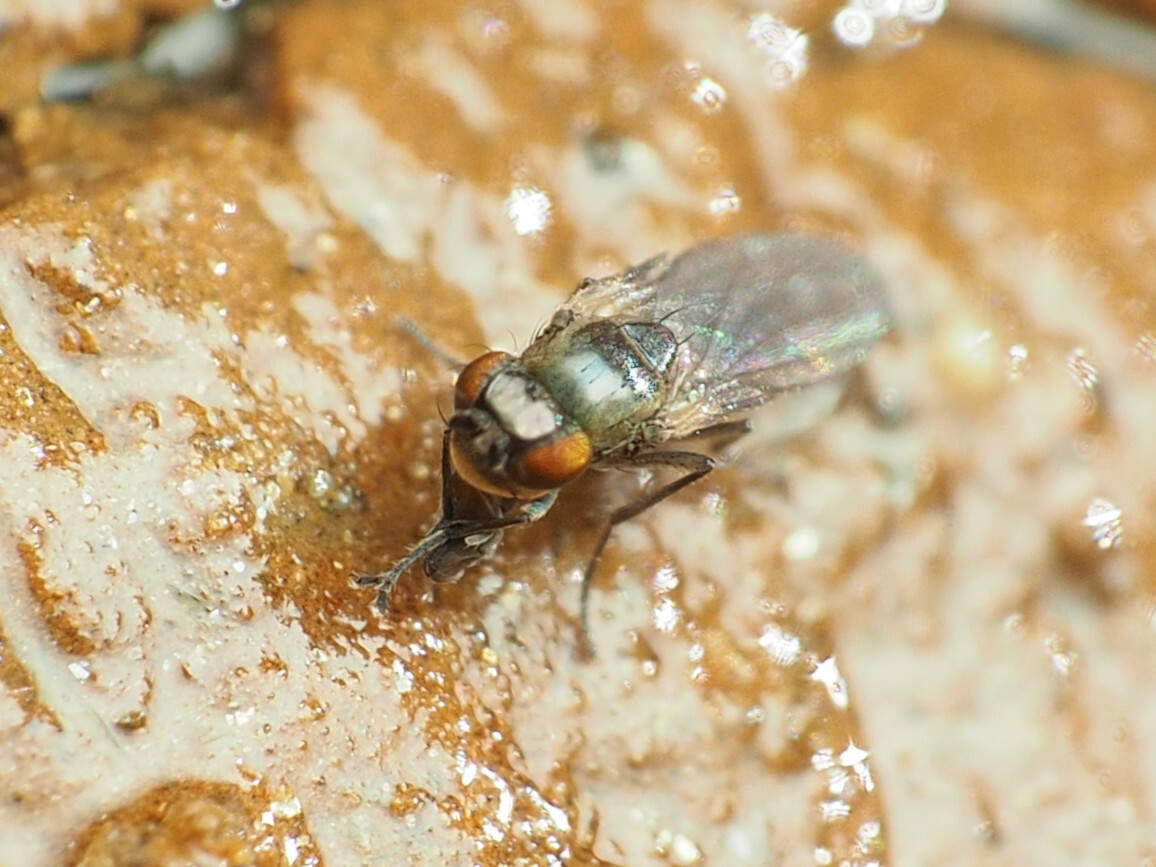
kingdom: Animalia
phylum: Arthropoda
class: Insecta
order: Diptera
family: Ephydridae
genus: Scatella
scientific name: Scatella favillacea
